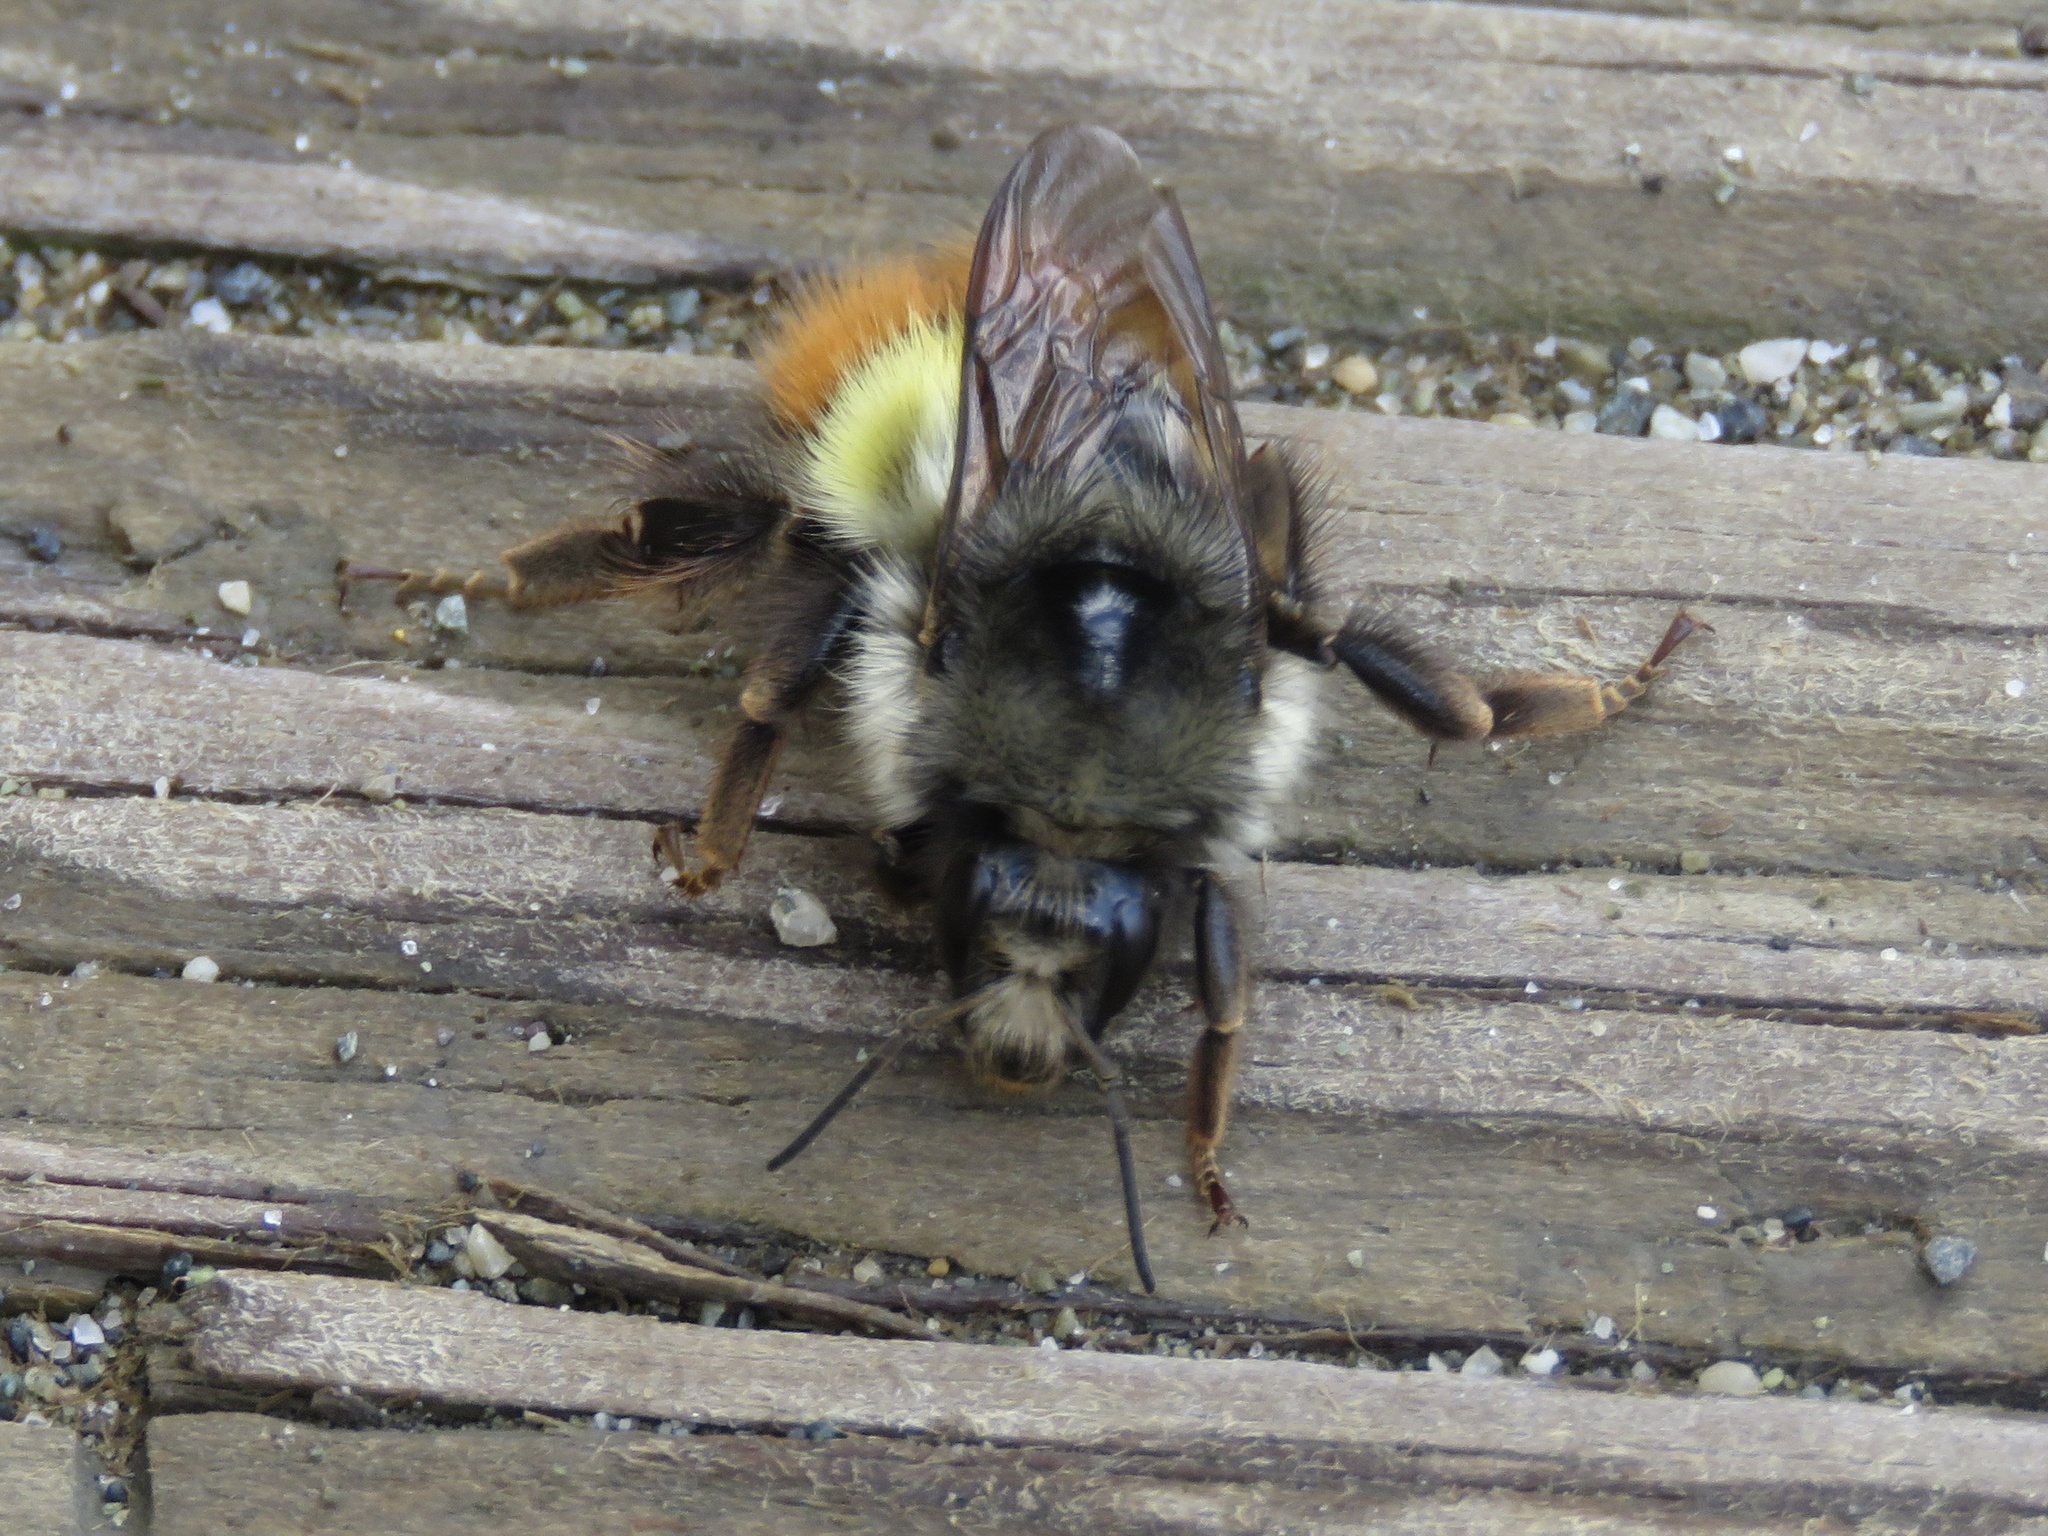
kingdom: Animalia
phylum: Arthropoda
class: Insecta
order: Hymenoptera
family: Apidae
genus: Bombus
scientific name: Bombus flavifrons
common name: Yellow head bumble bee
